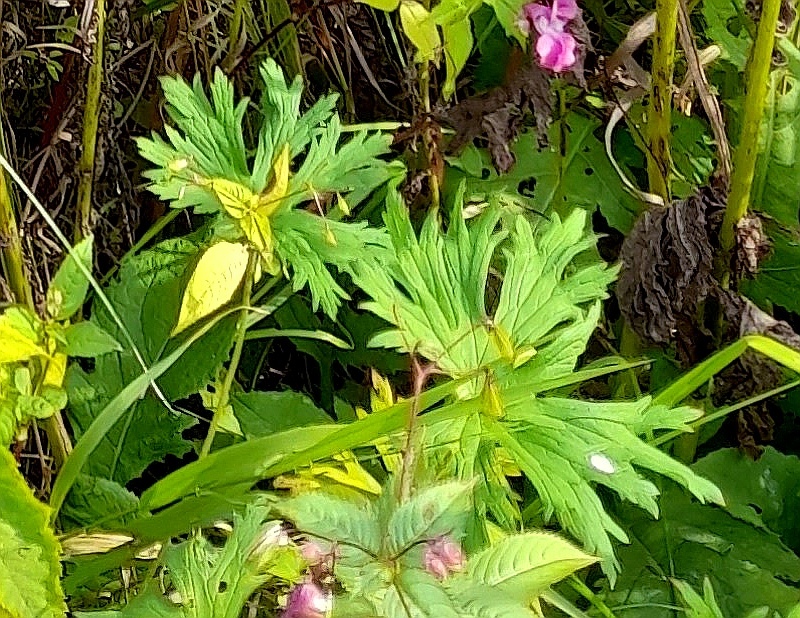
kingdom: Plantae
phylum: Tracheophyta
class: Magnoliopsida
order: Geraniales
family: Geraniaceae
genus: Geranium
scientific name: Geranium pratense
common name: Meadow crane's-bill
